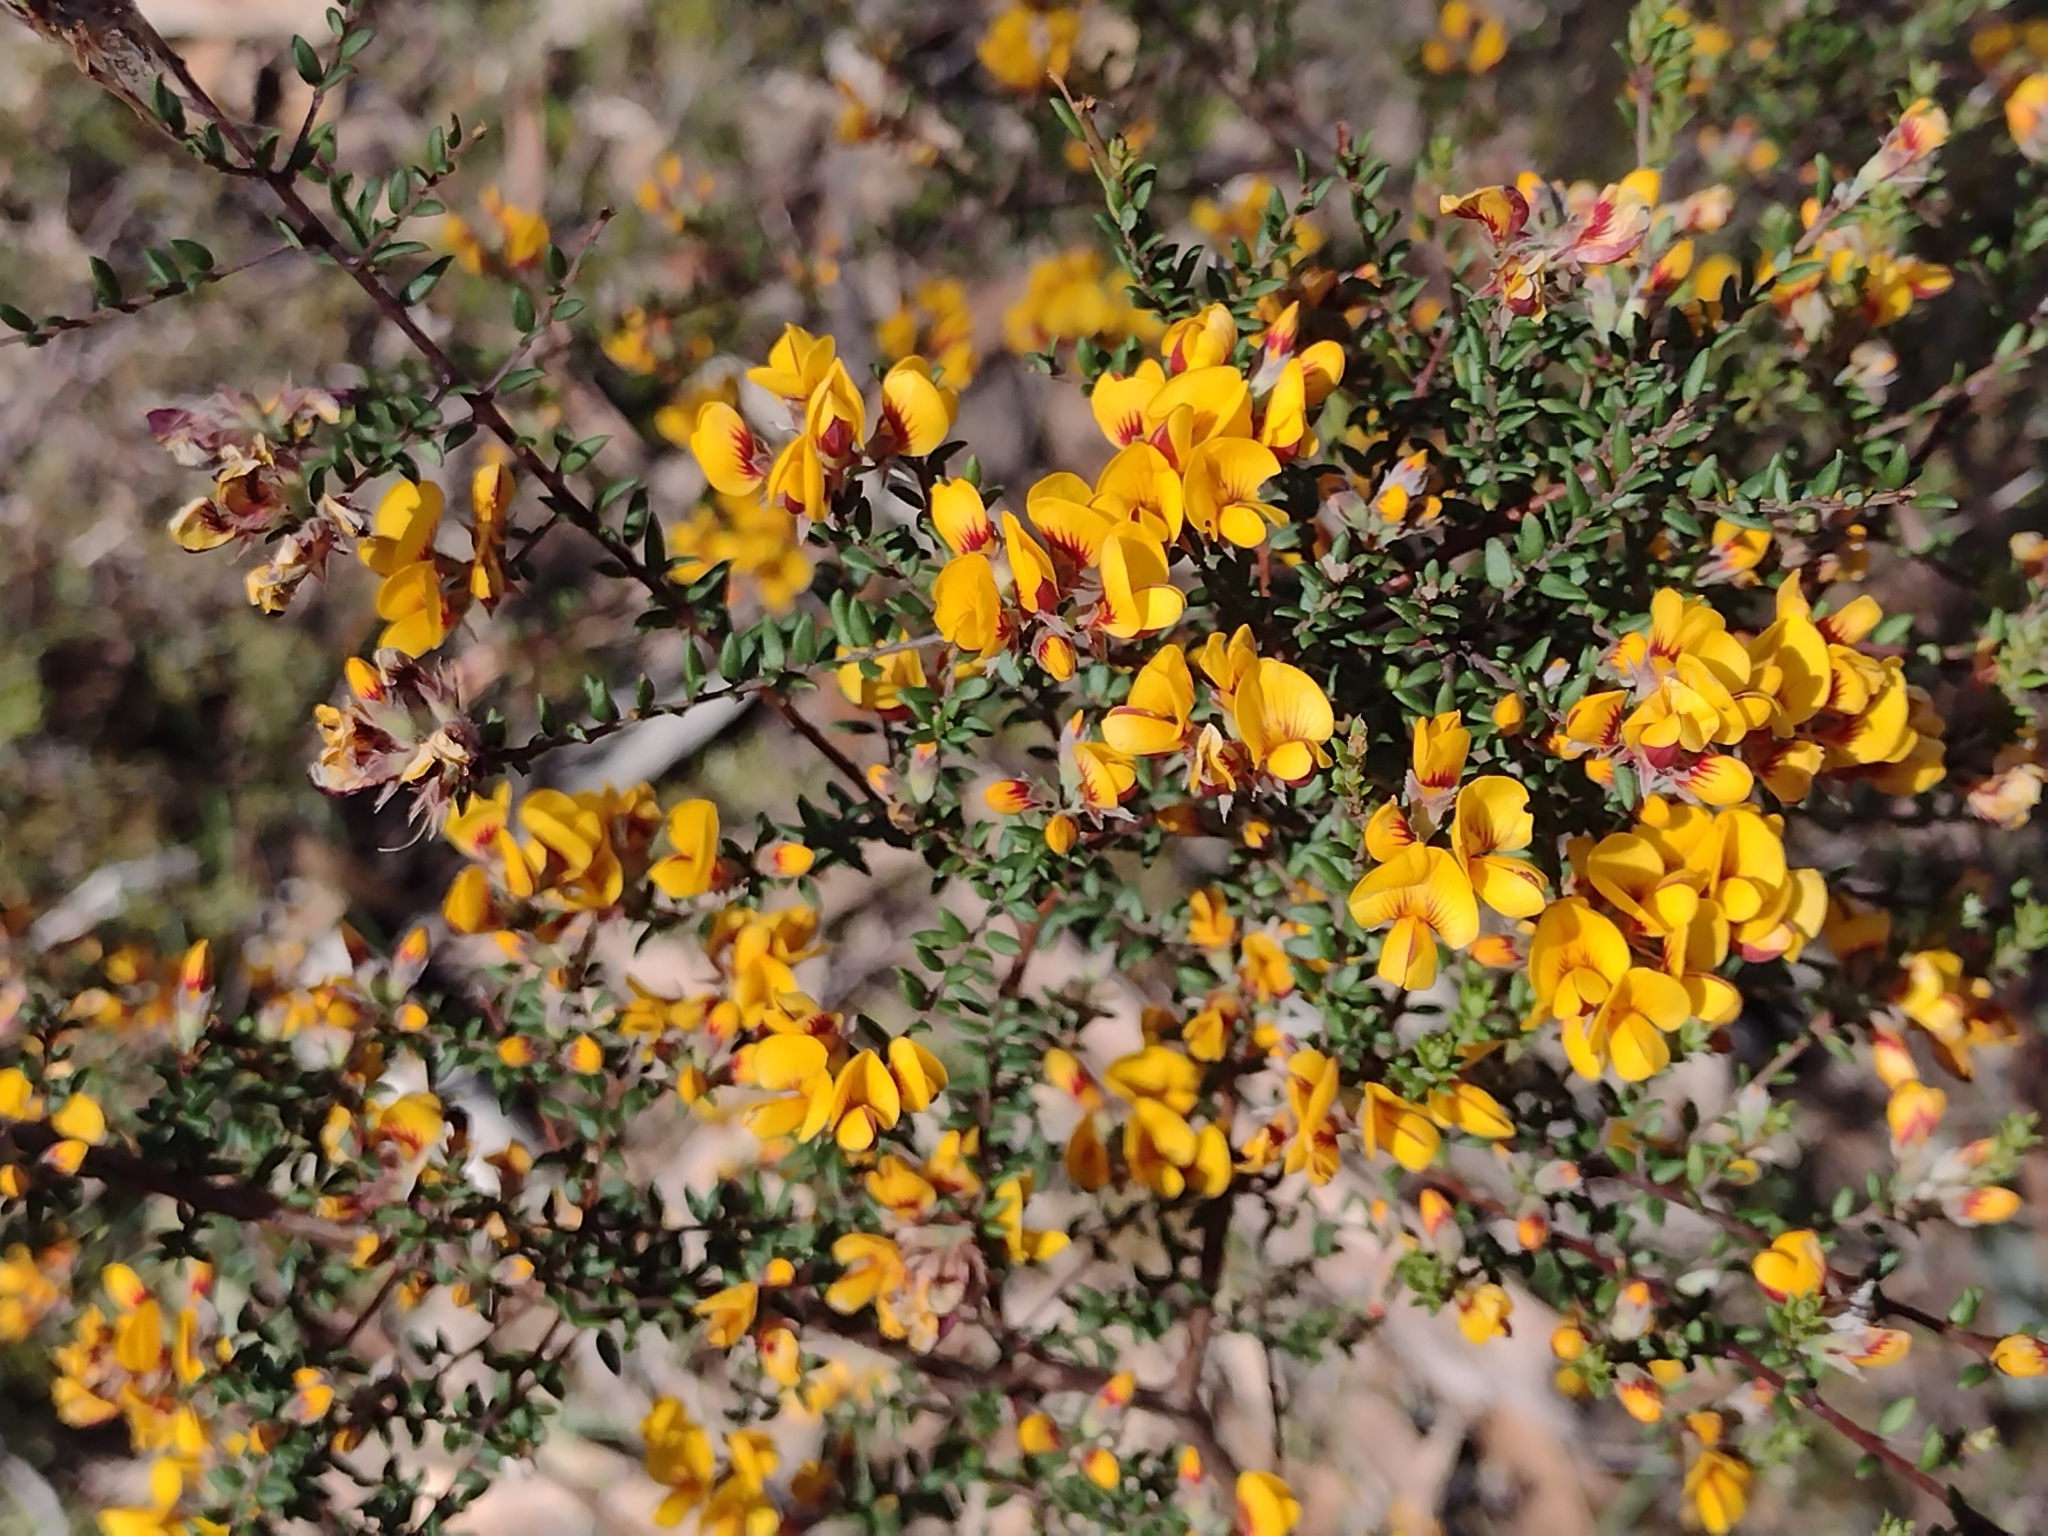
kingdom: Plantae
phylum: Tracheophyta
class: Magnoliopsida
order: Fabales
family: Fabaceae
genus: Pultenaea
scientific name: Pultenaea gunnii
